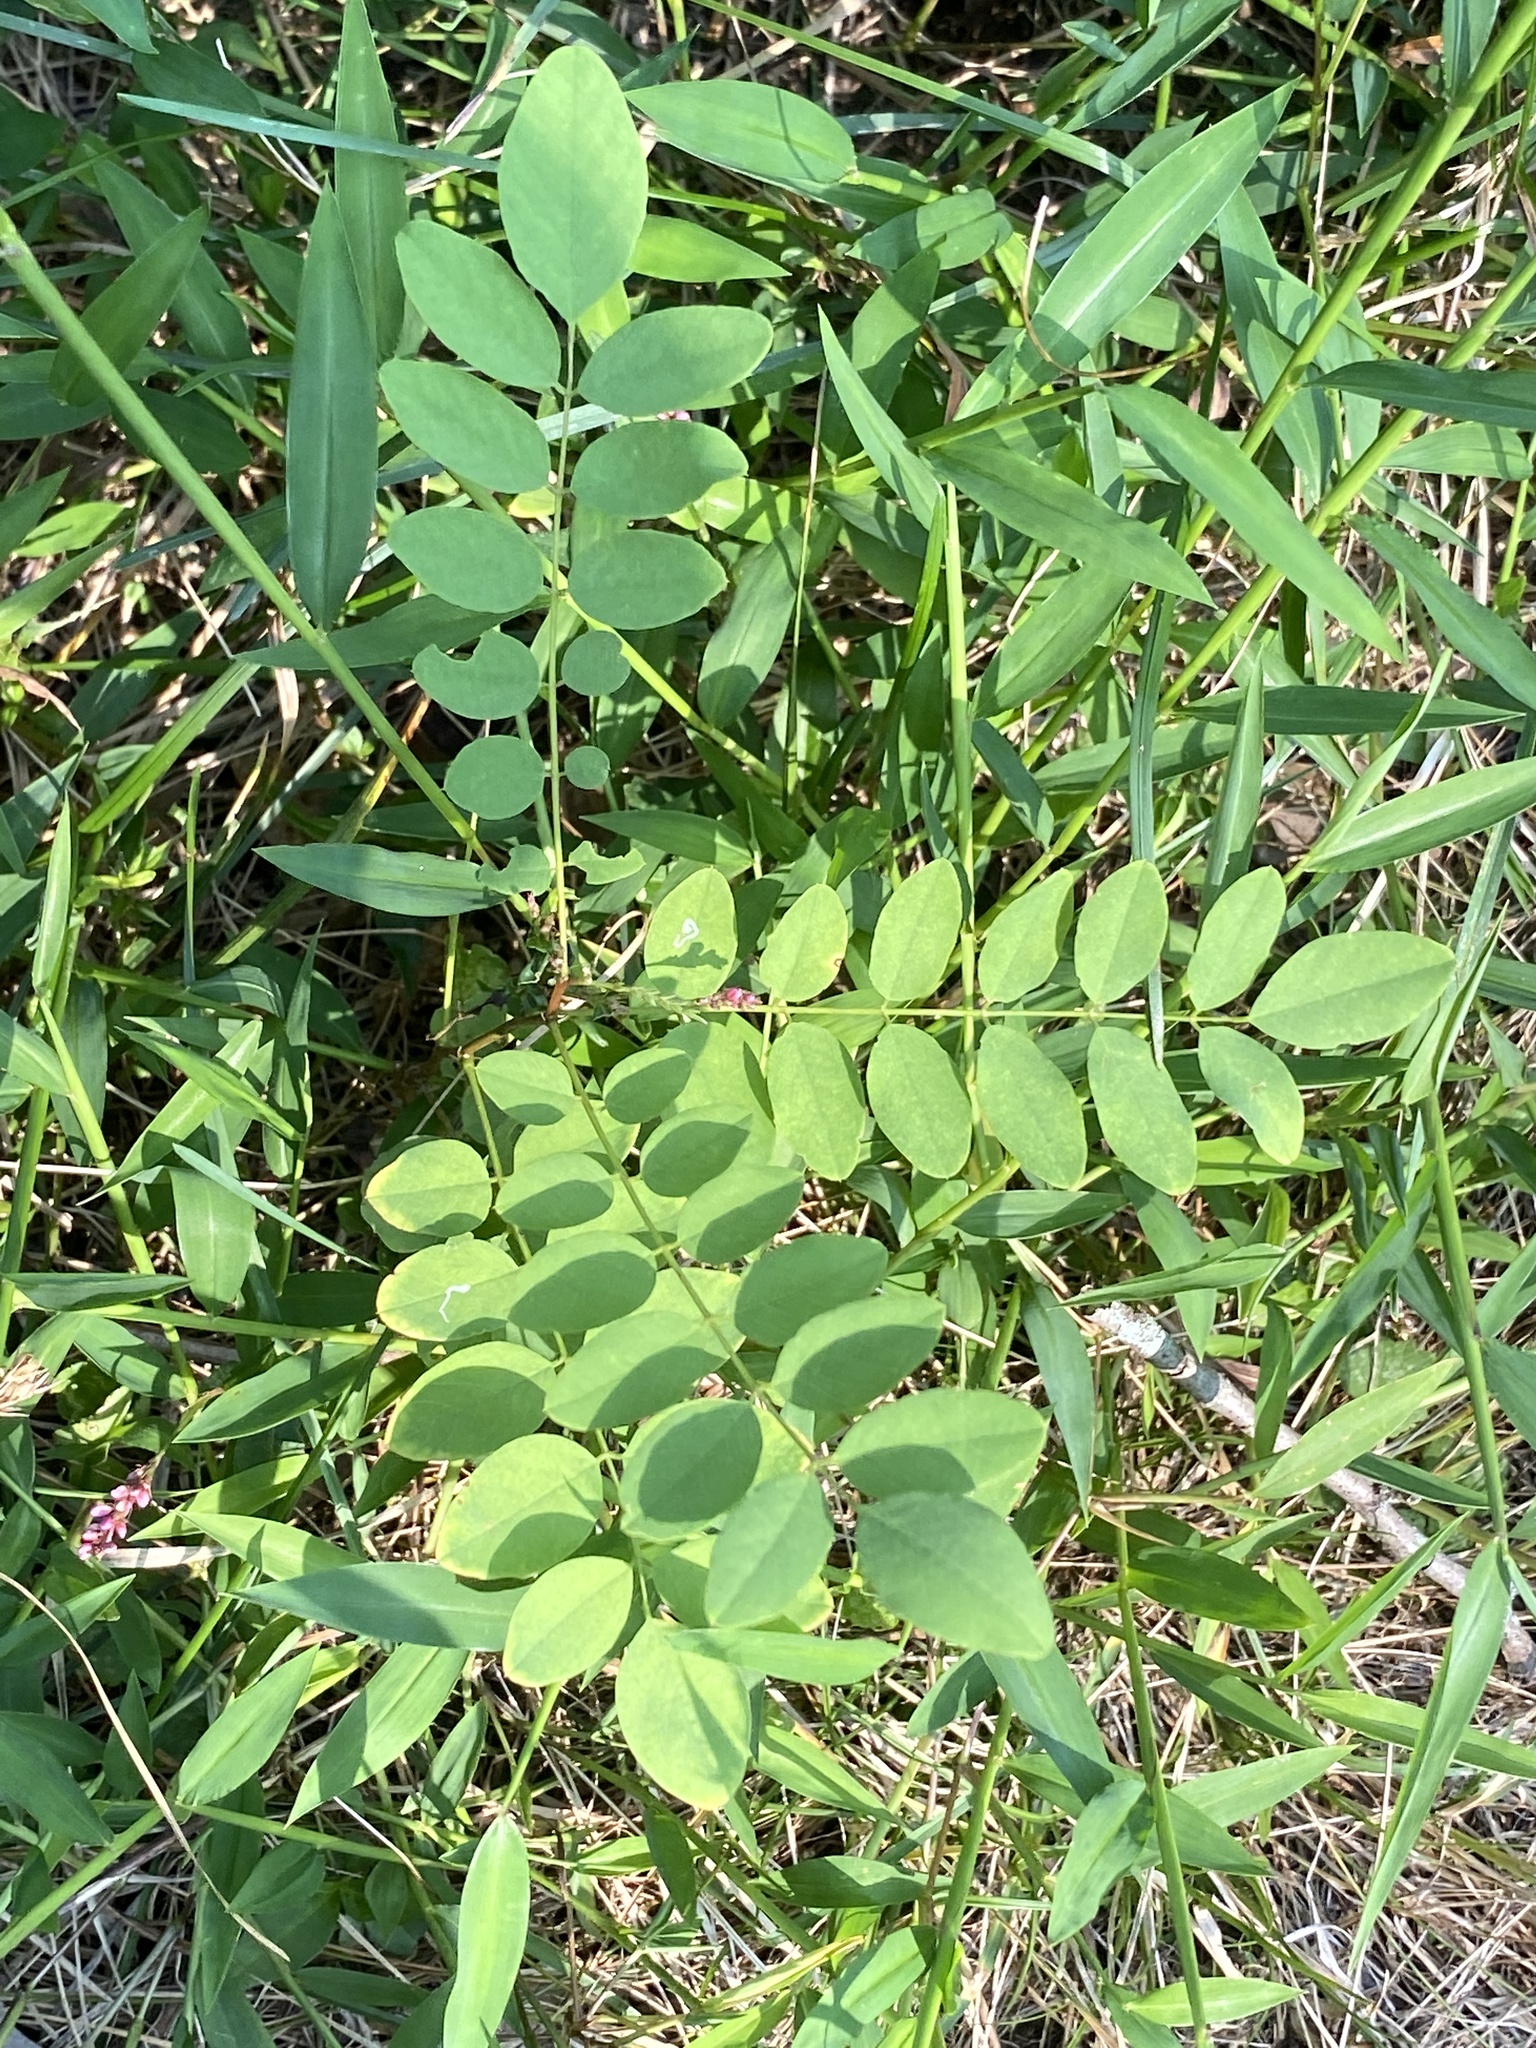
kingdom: Plantae
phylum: Tracheophyta
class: Magnoliopsida
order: Fabales
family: Fabaceae
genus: Robinia
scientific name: Robinia pseudoacacia
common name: Black locust
